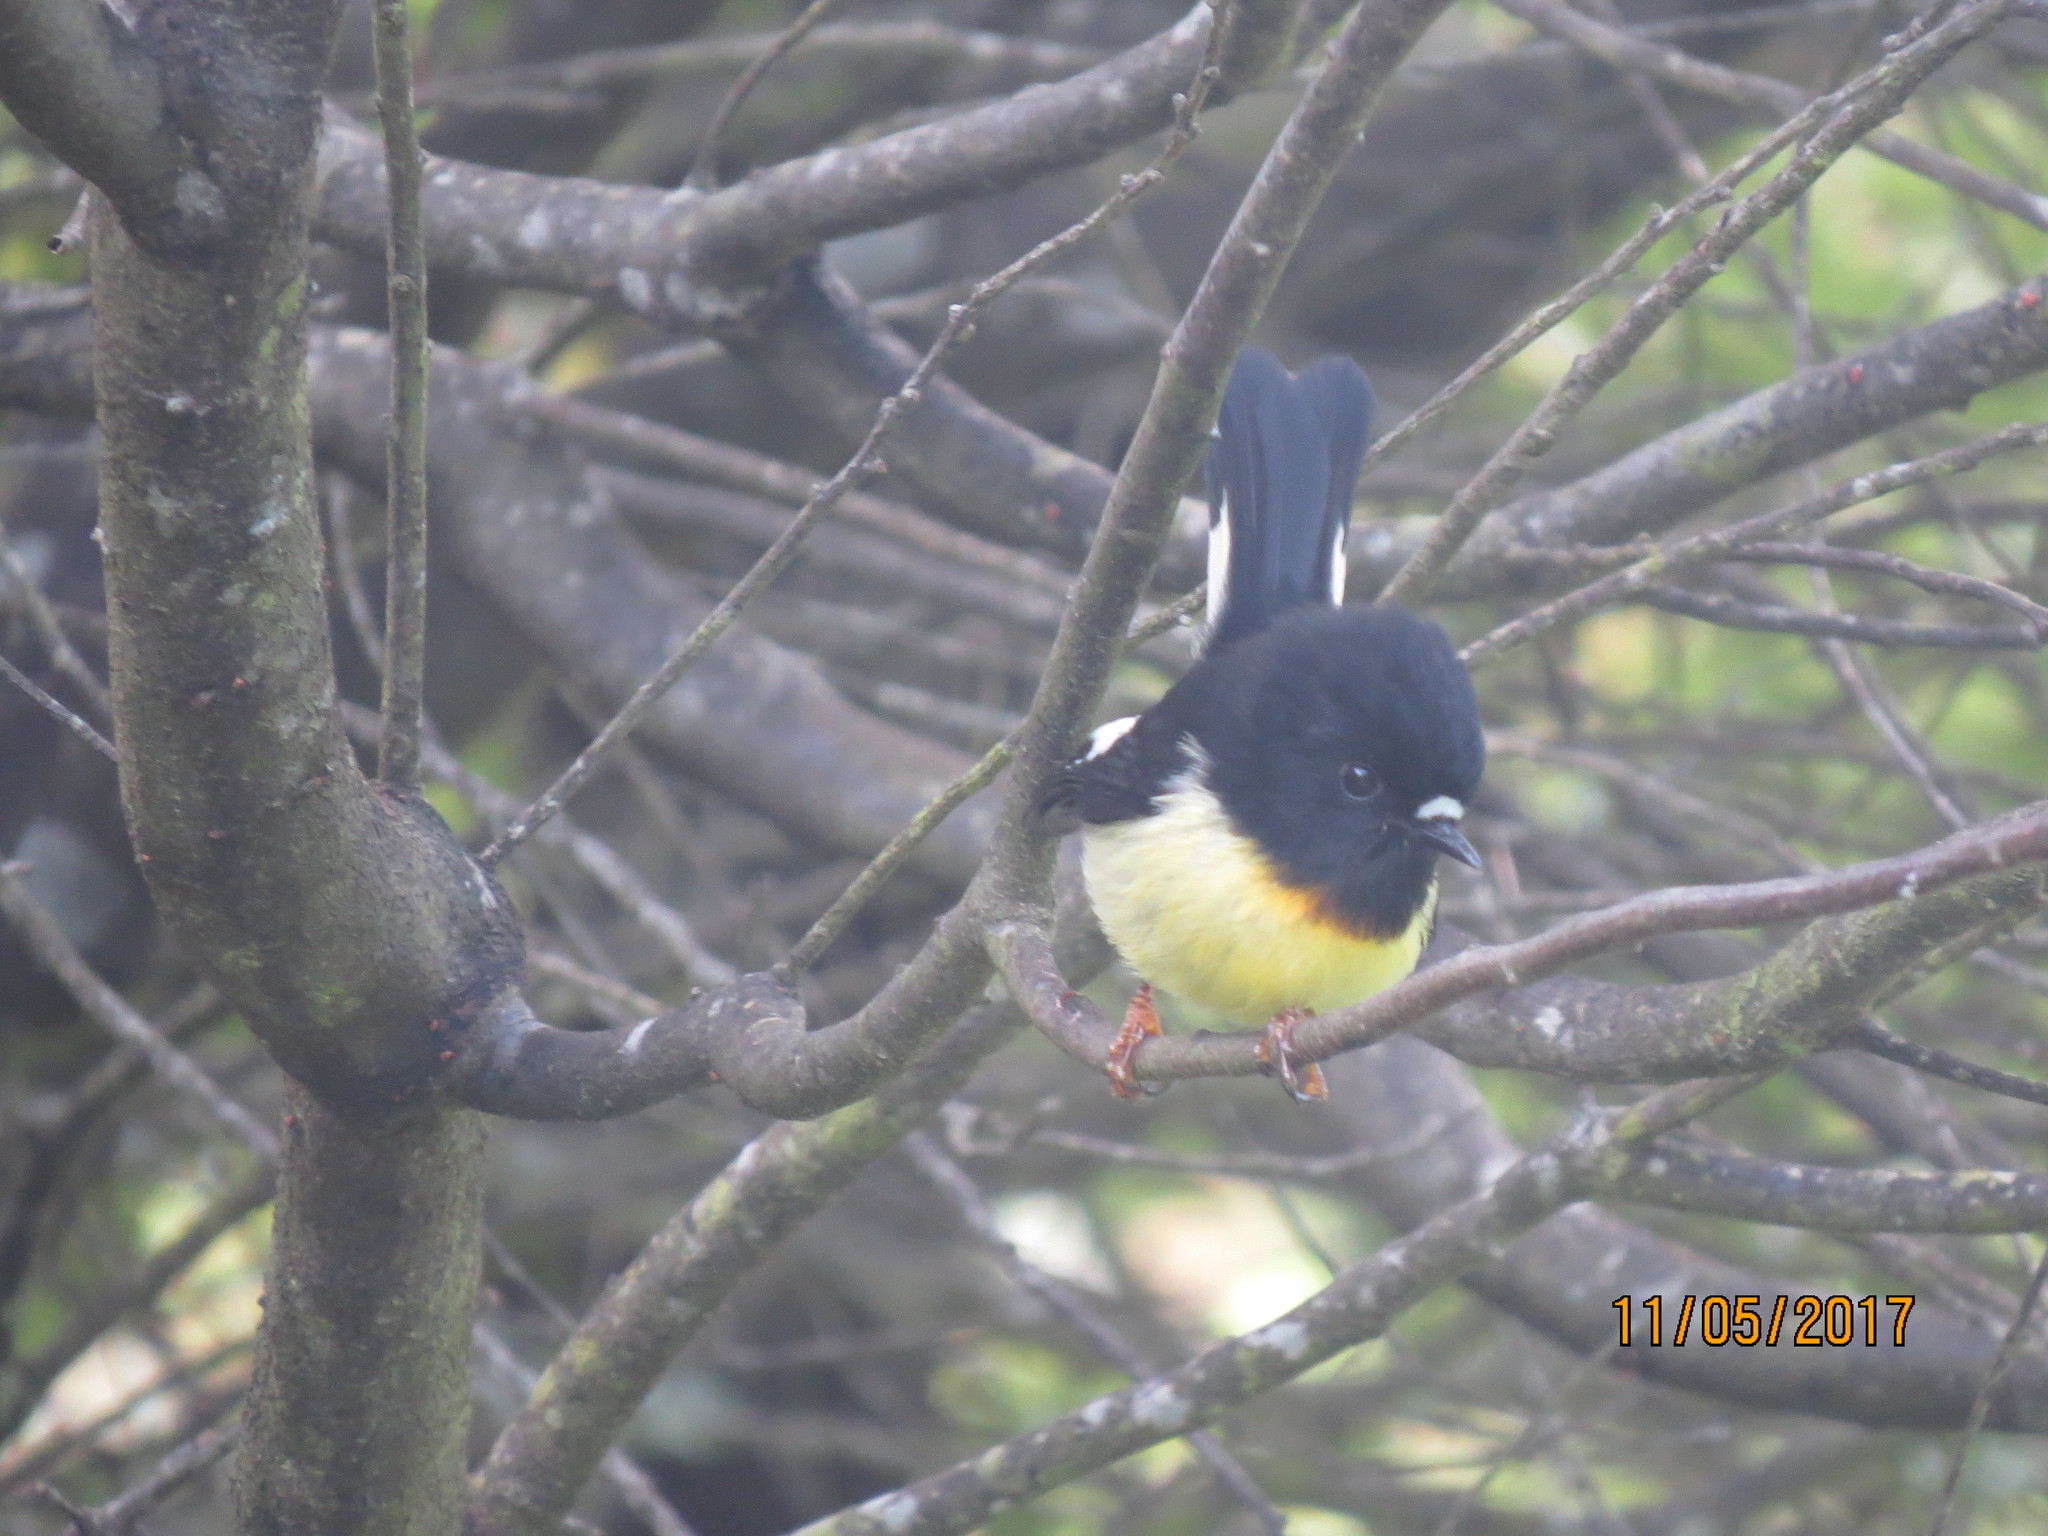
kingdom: Animalia
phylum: Chordata
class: Aves
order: Passeriformes
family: Petroicidae
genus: Petroica
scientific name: Petroica macrocephala
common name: Tomtit
